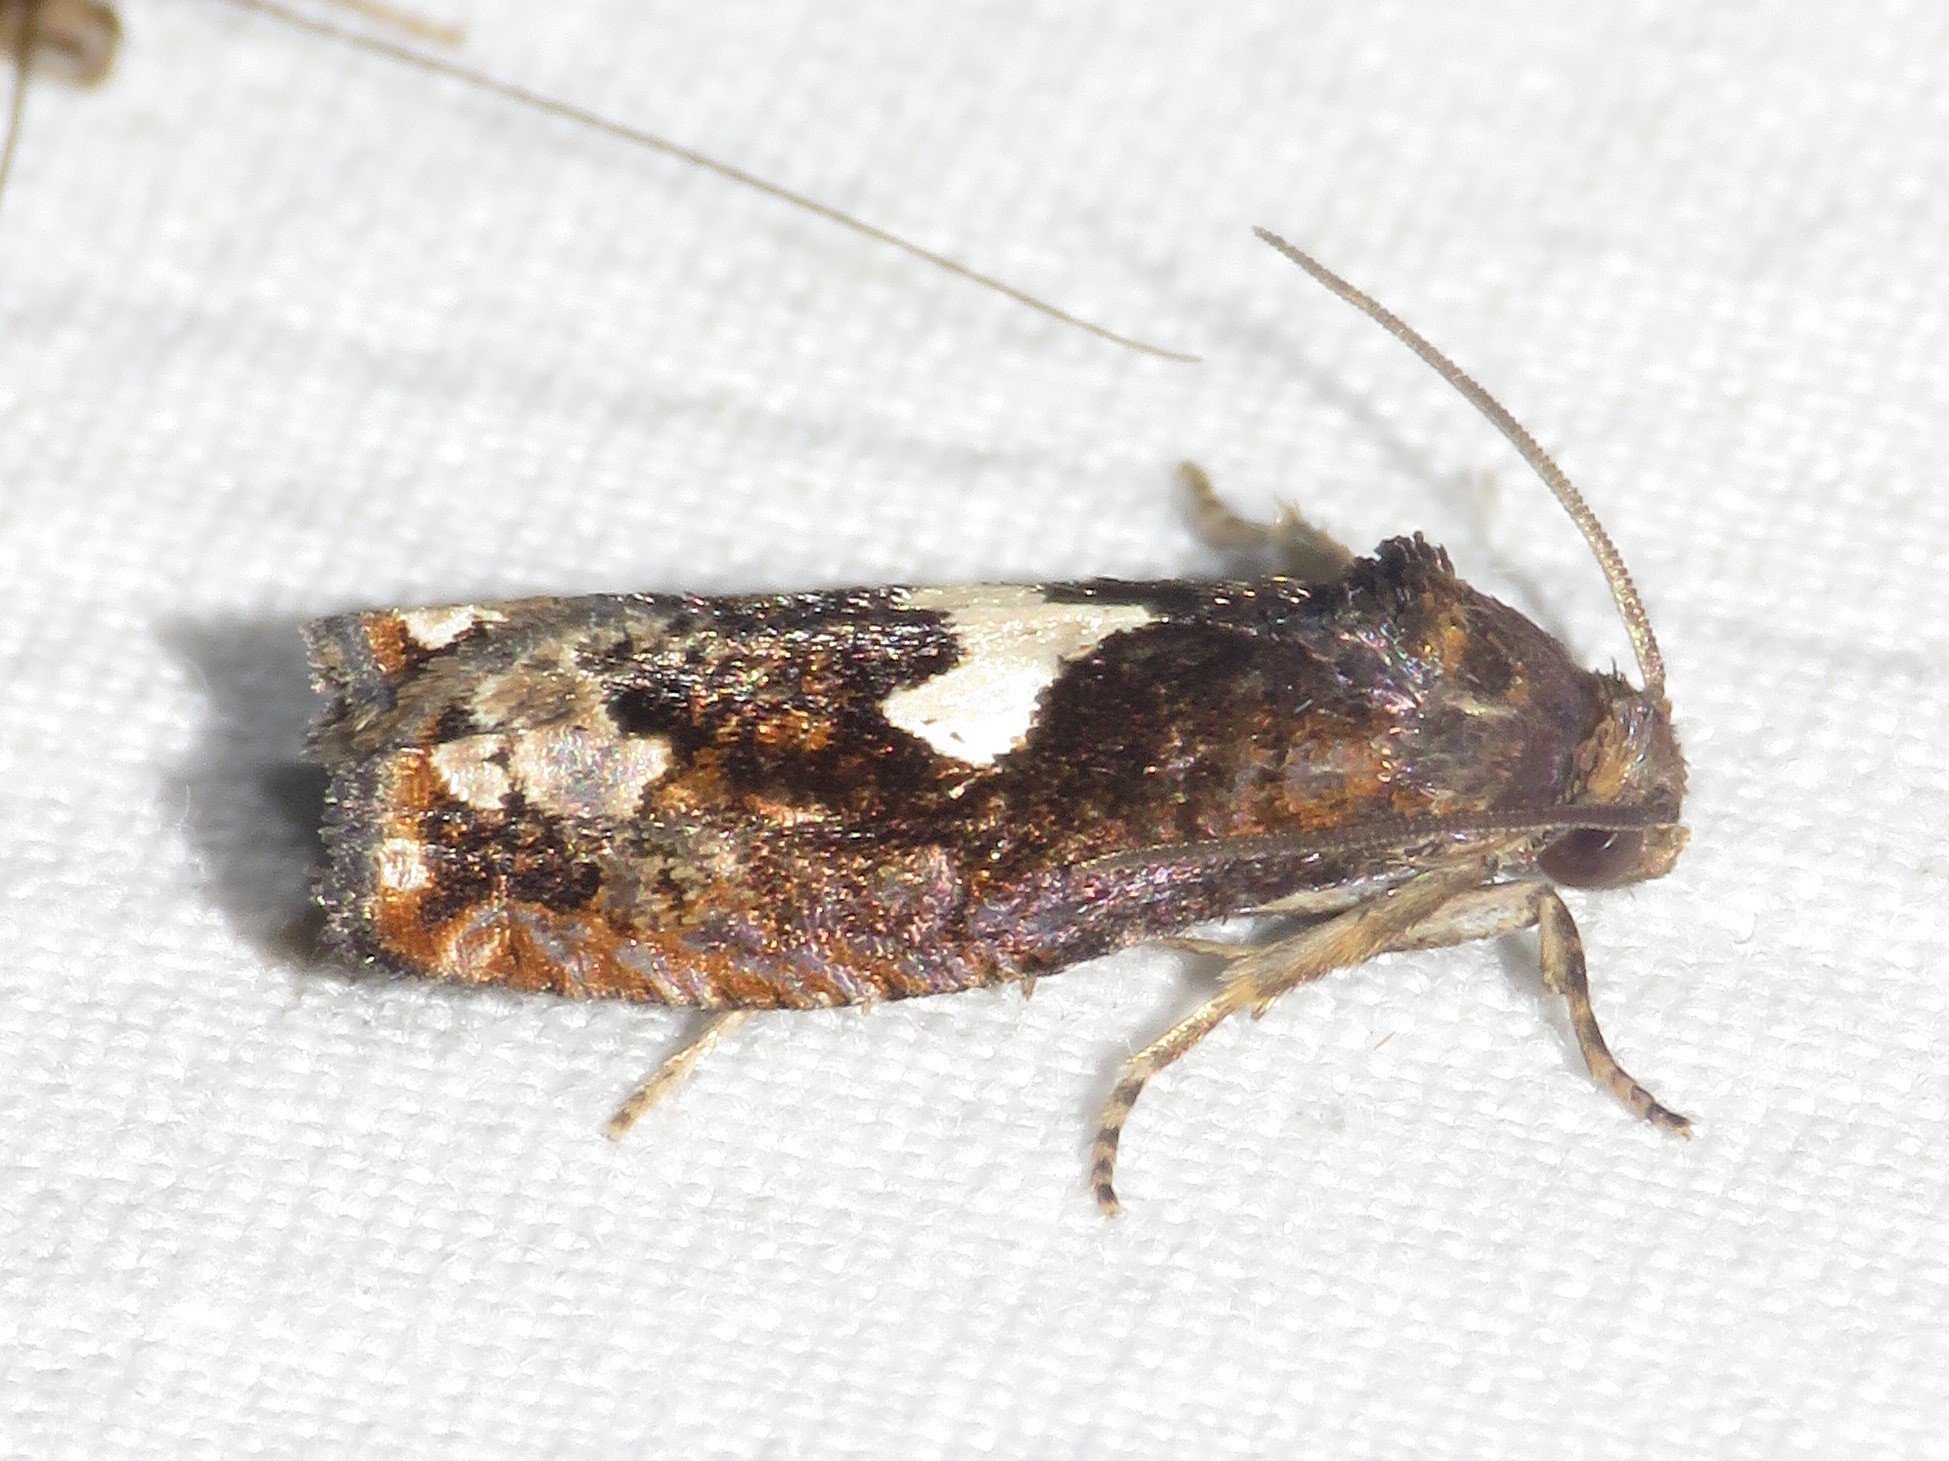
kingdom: Animalia
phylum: Arthropoda
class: Insecta
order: Lepidoptera
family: Tortricidae
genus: Epiblema
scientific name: Epiblema otiosana
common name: Bidens borer moth
